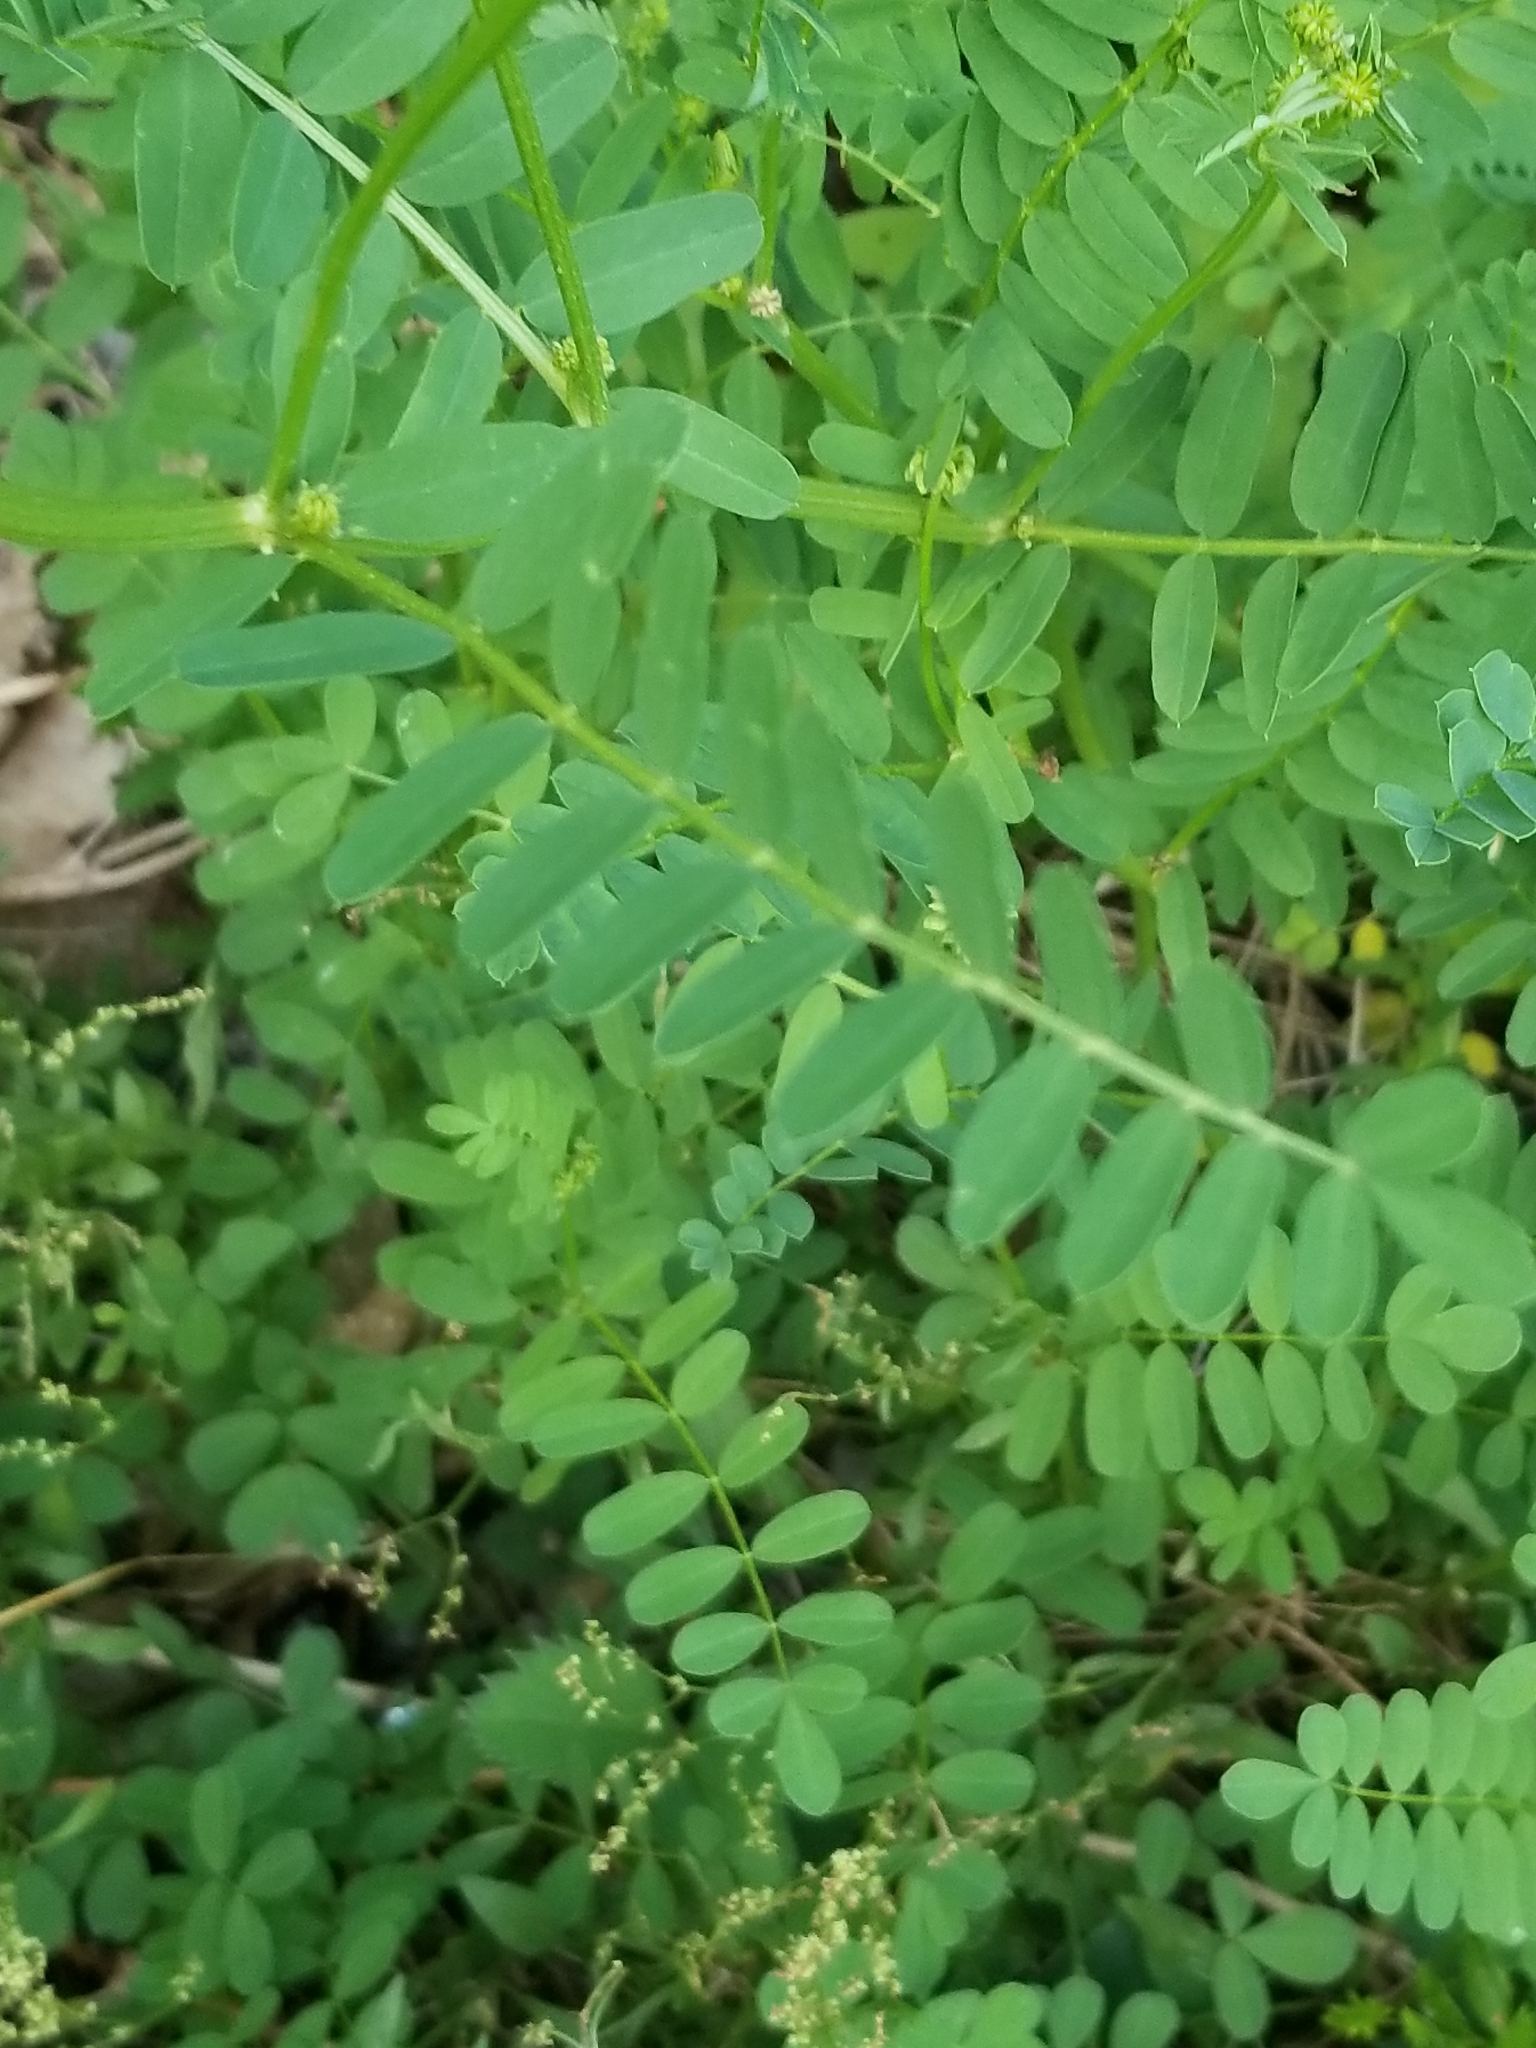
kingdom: Plantae
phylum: Tracheophyta
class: Magnoliopsida
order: Fabales
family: Fabaceae
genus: Coronilla
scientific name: Coronilla varia
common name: Crownvetch
